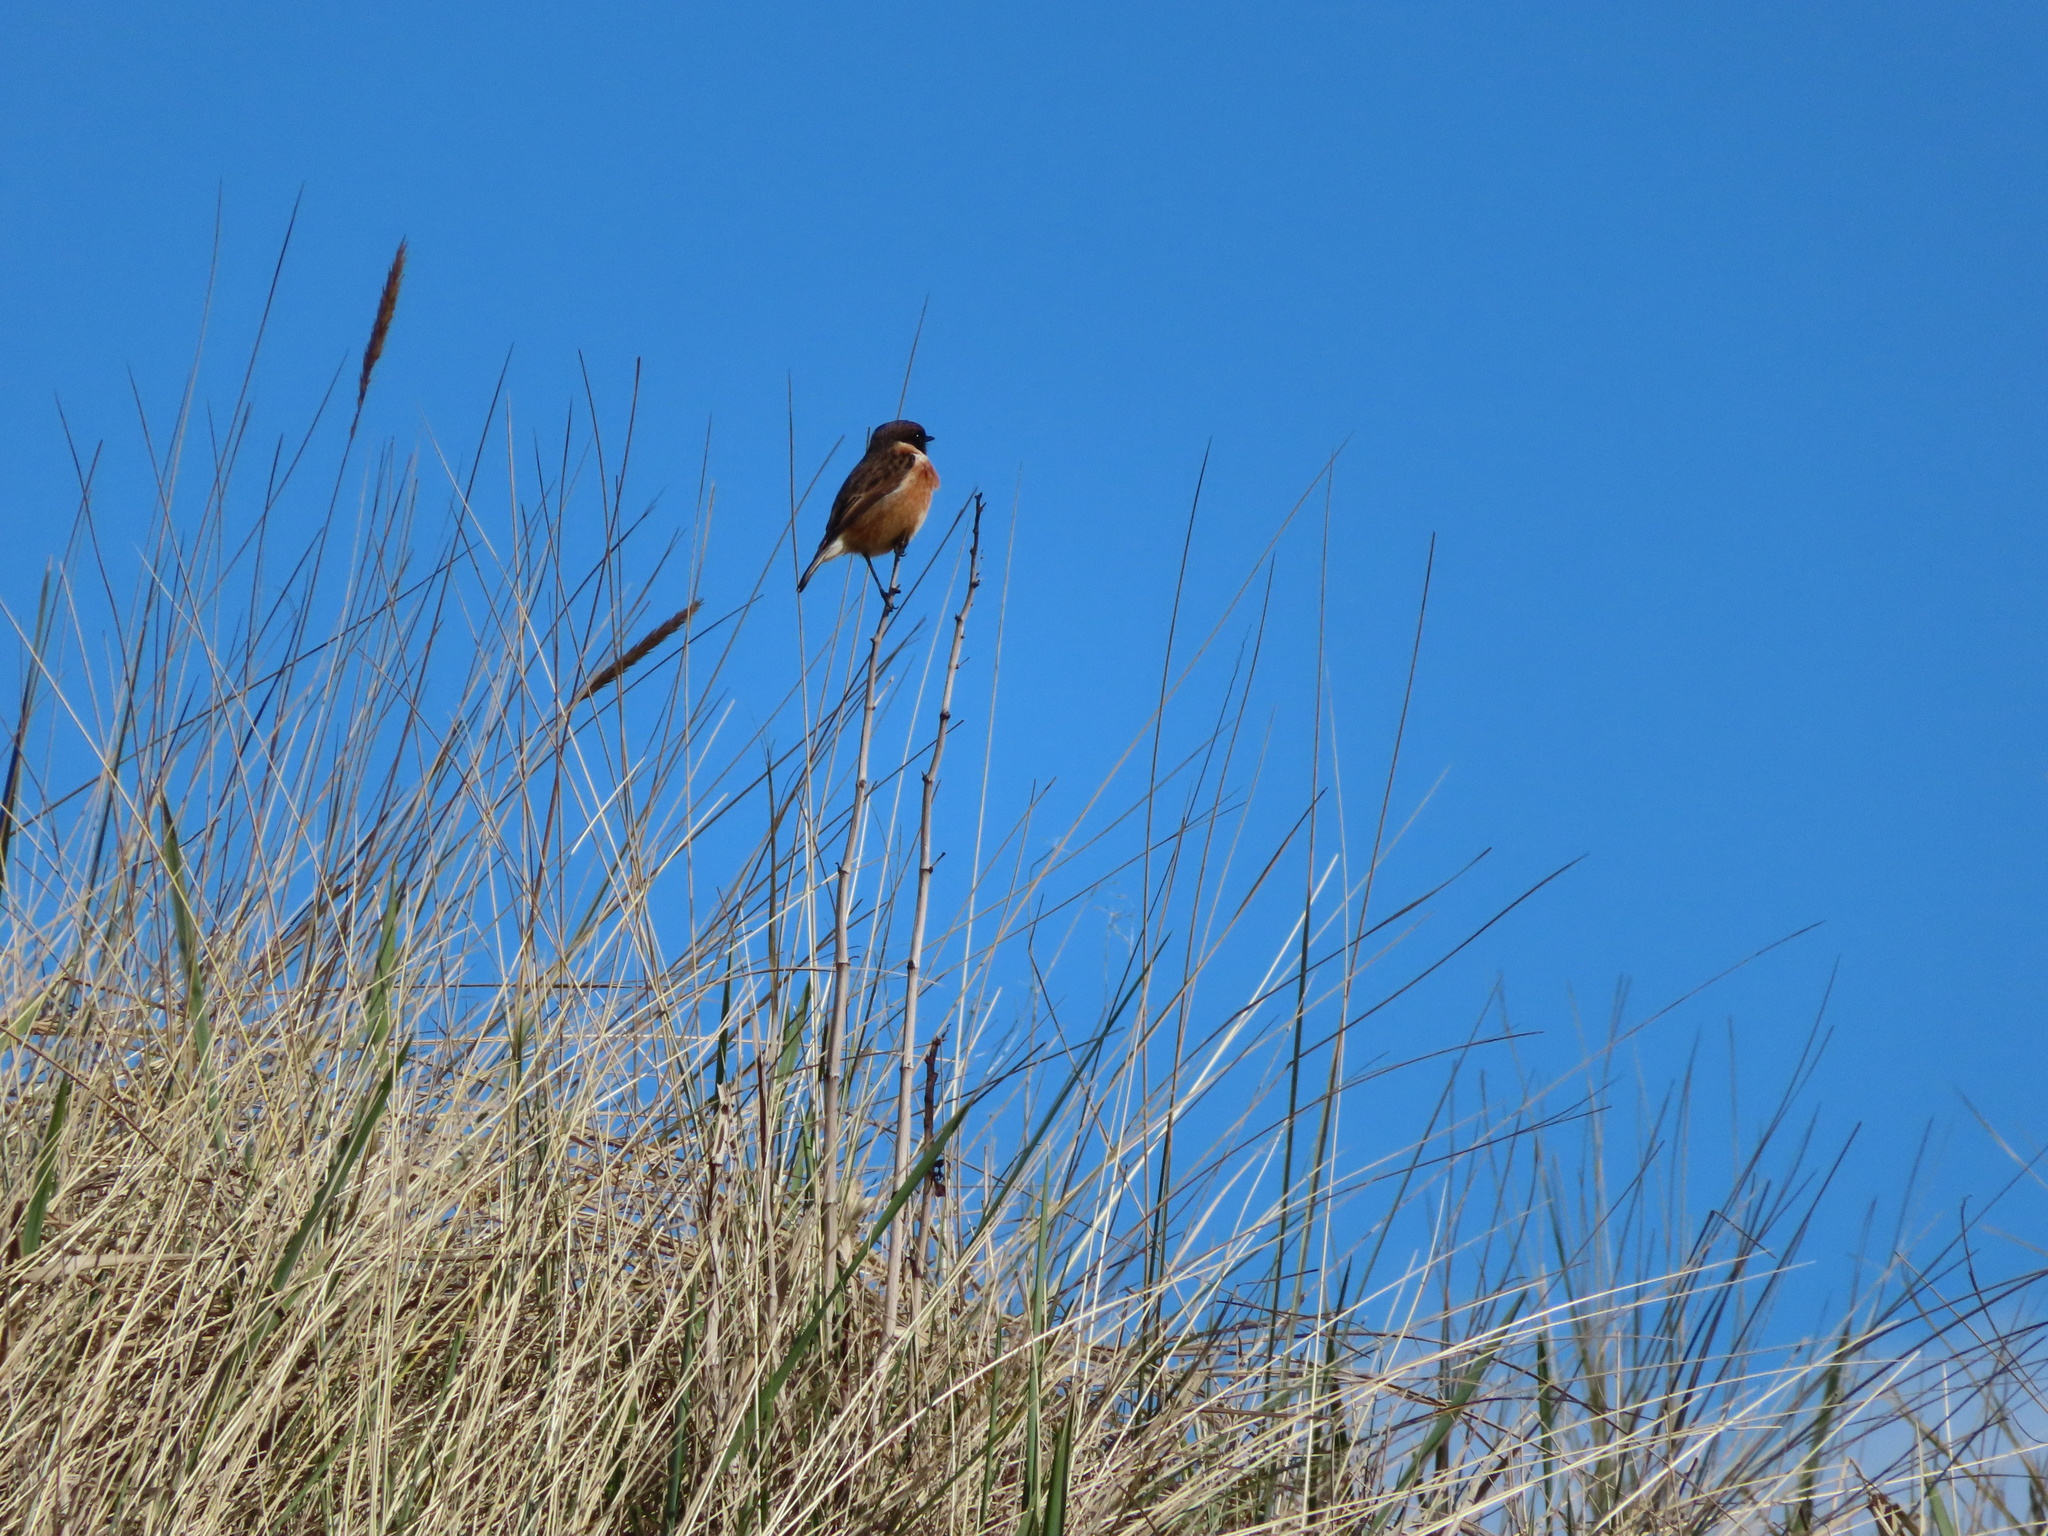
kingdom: Animalia
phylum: Chordata
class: Aves
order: Passeriformes
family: Muscicapidae
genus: Saxicola
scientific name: Saxicola rubicola
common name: European stonechat
